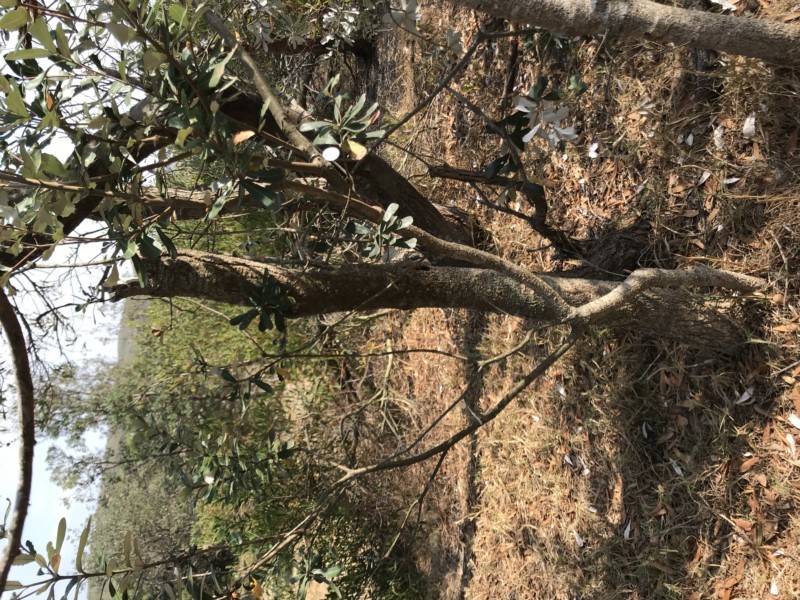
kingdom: Plantae
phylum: Tracheophyta
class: Magnoliopsida
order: Proteales
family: Proteaceae
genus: Banksia
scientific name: Banksia integrifolia
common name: White-honeysuckle
